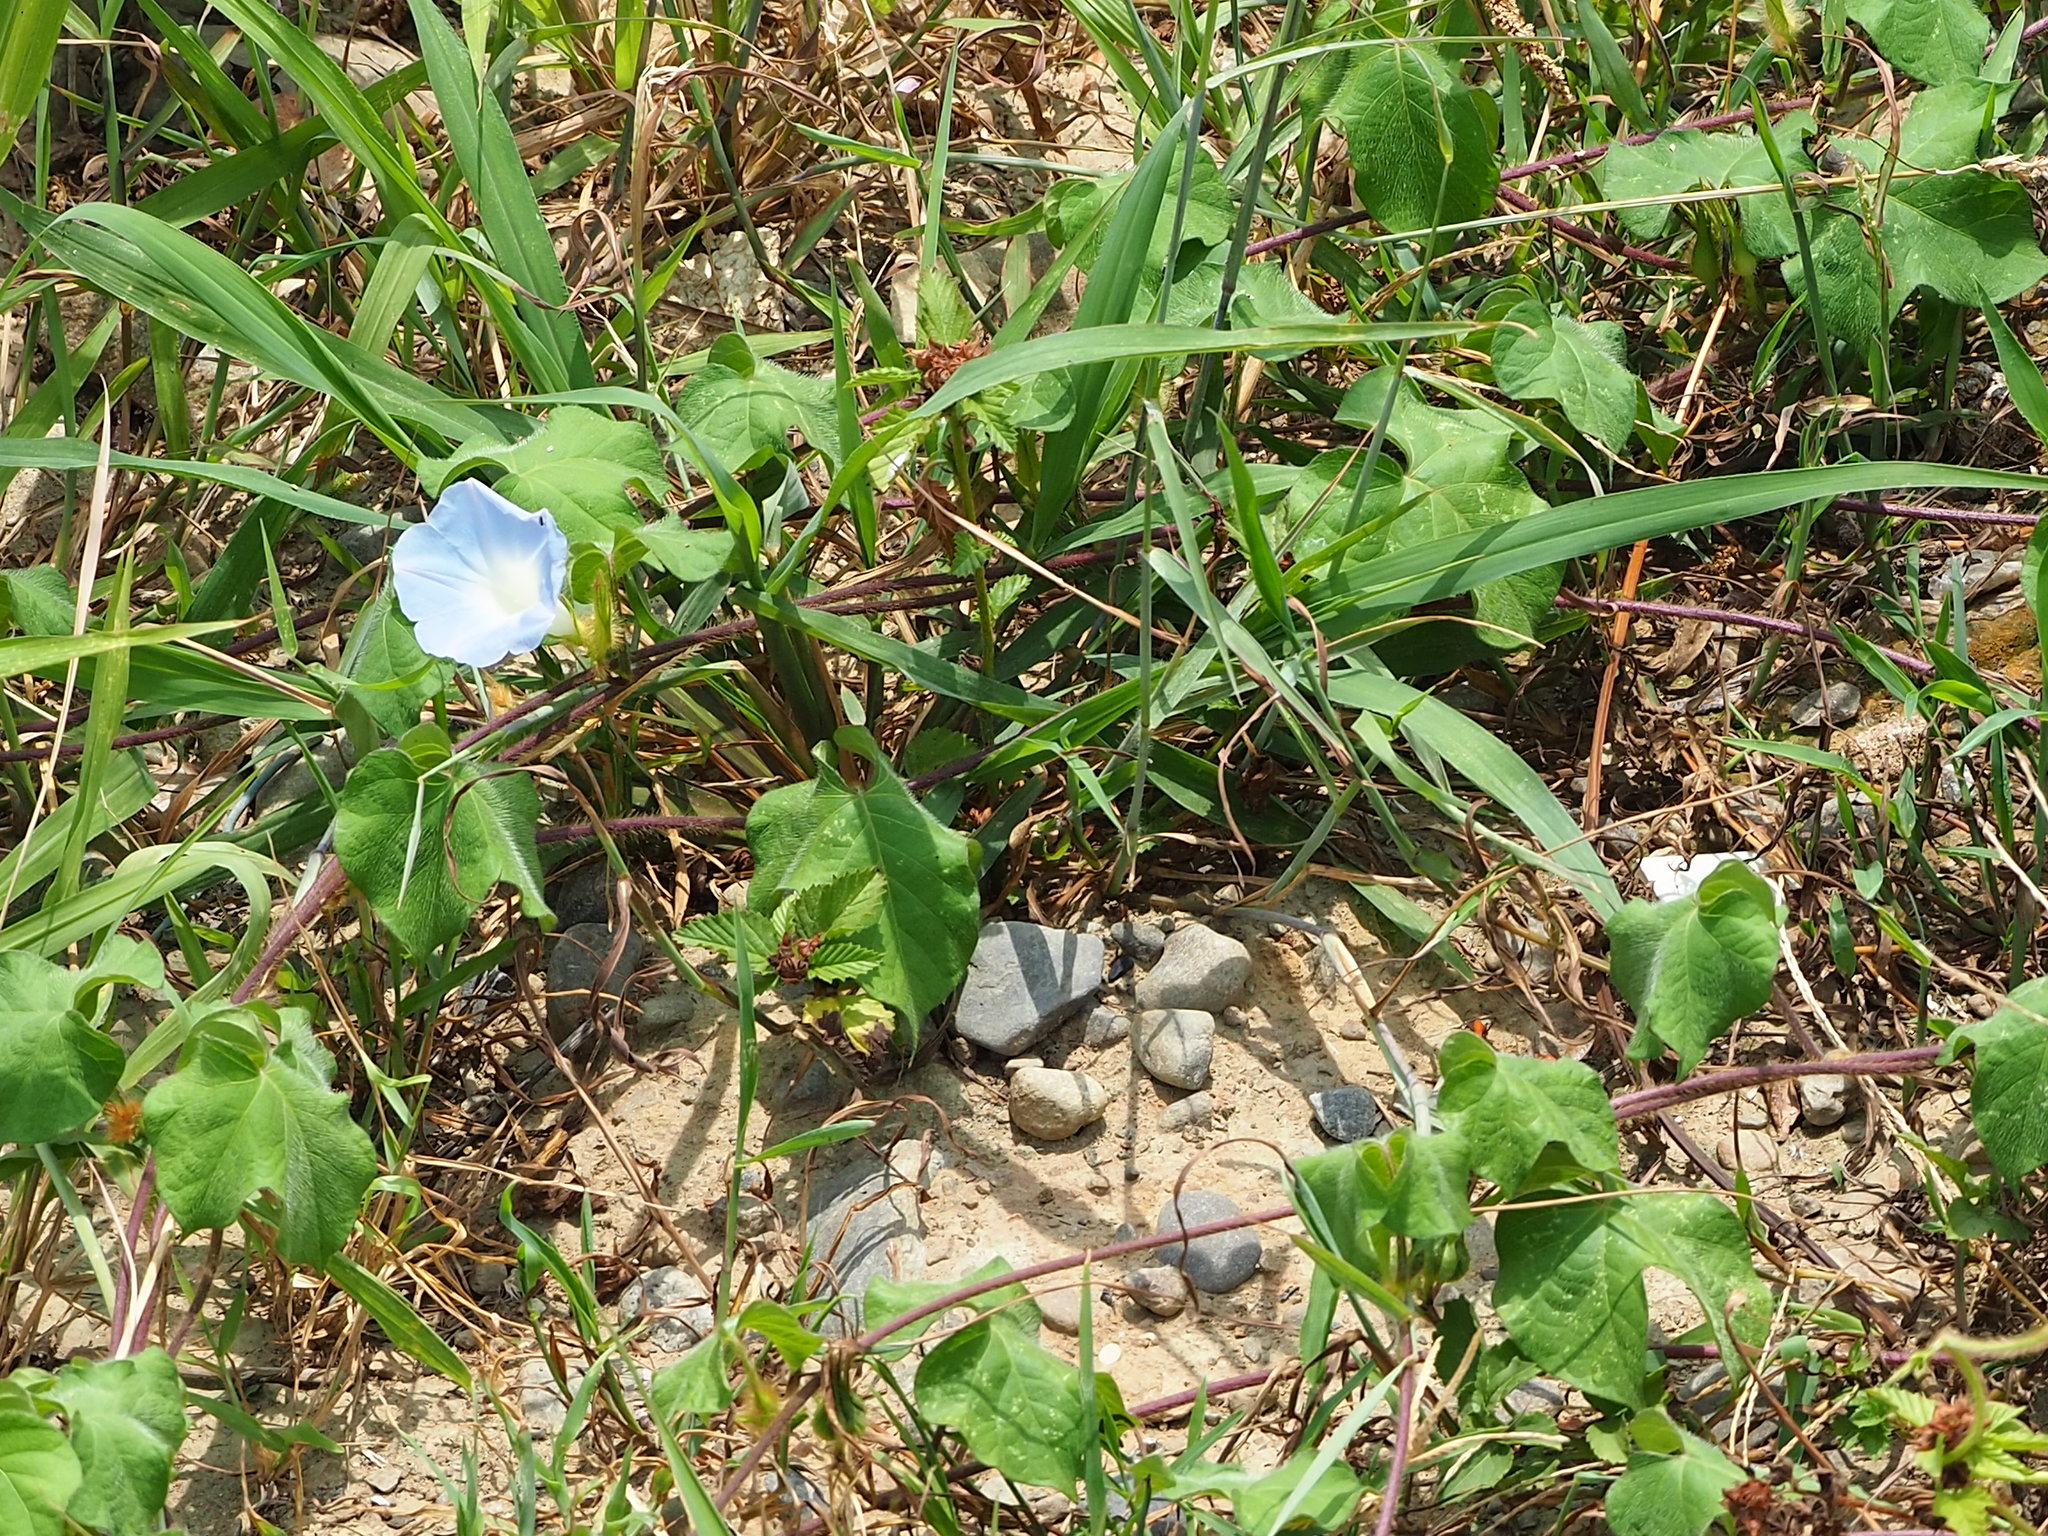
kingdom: Plantae
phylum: Tracheophyta
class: Magnoliopsida
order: Solanales
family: Convolvulaceae
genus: Ipomoea
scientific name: Ipomoea nil
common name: Japanese morning-glory
